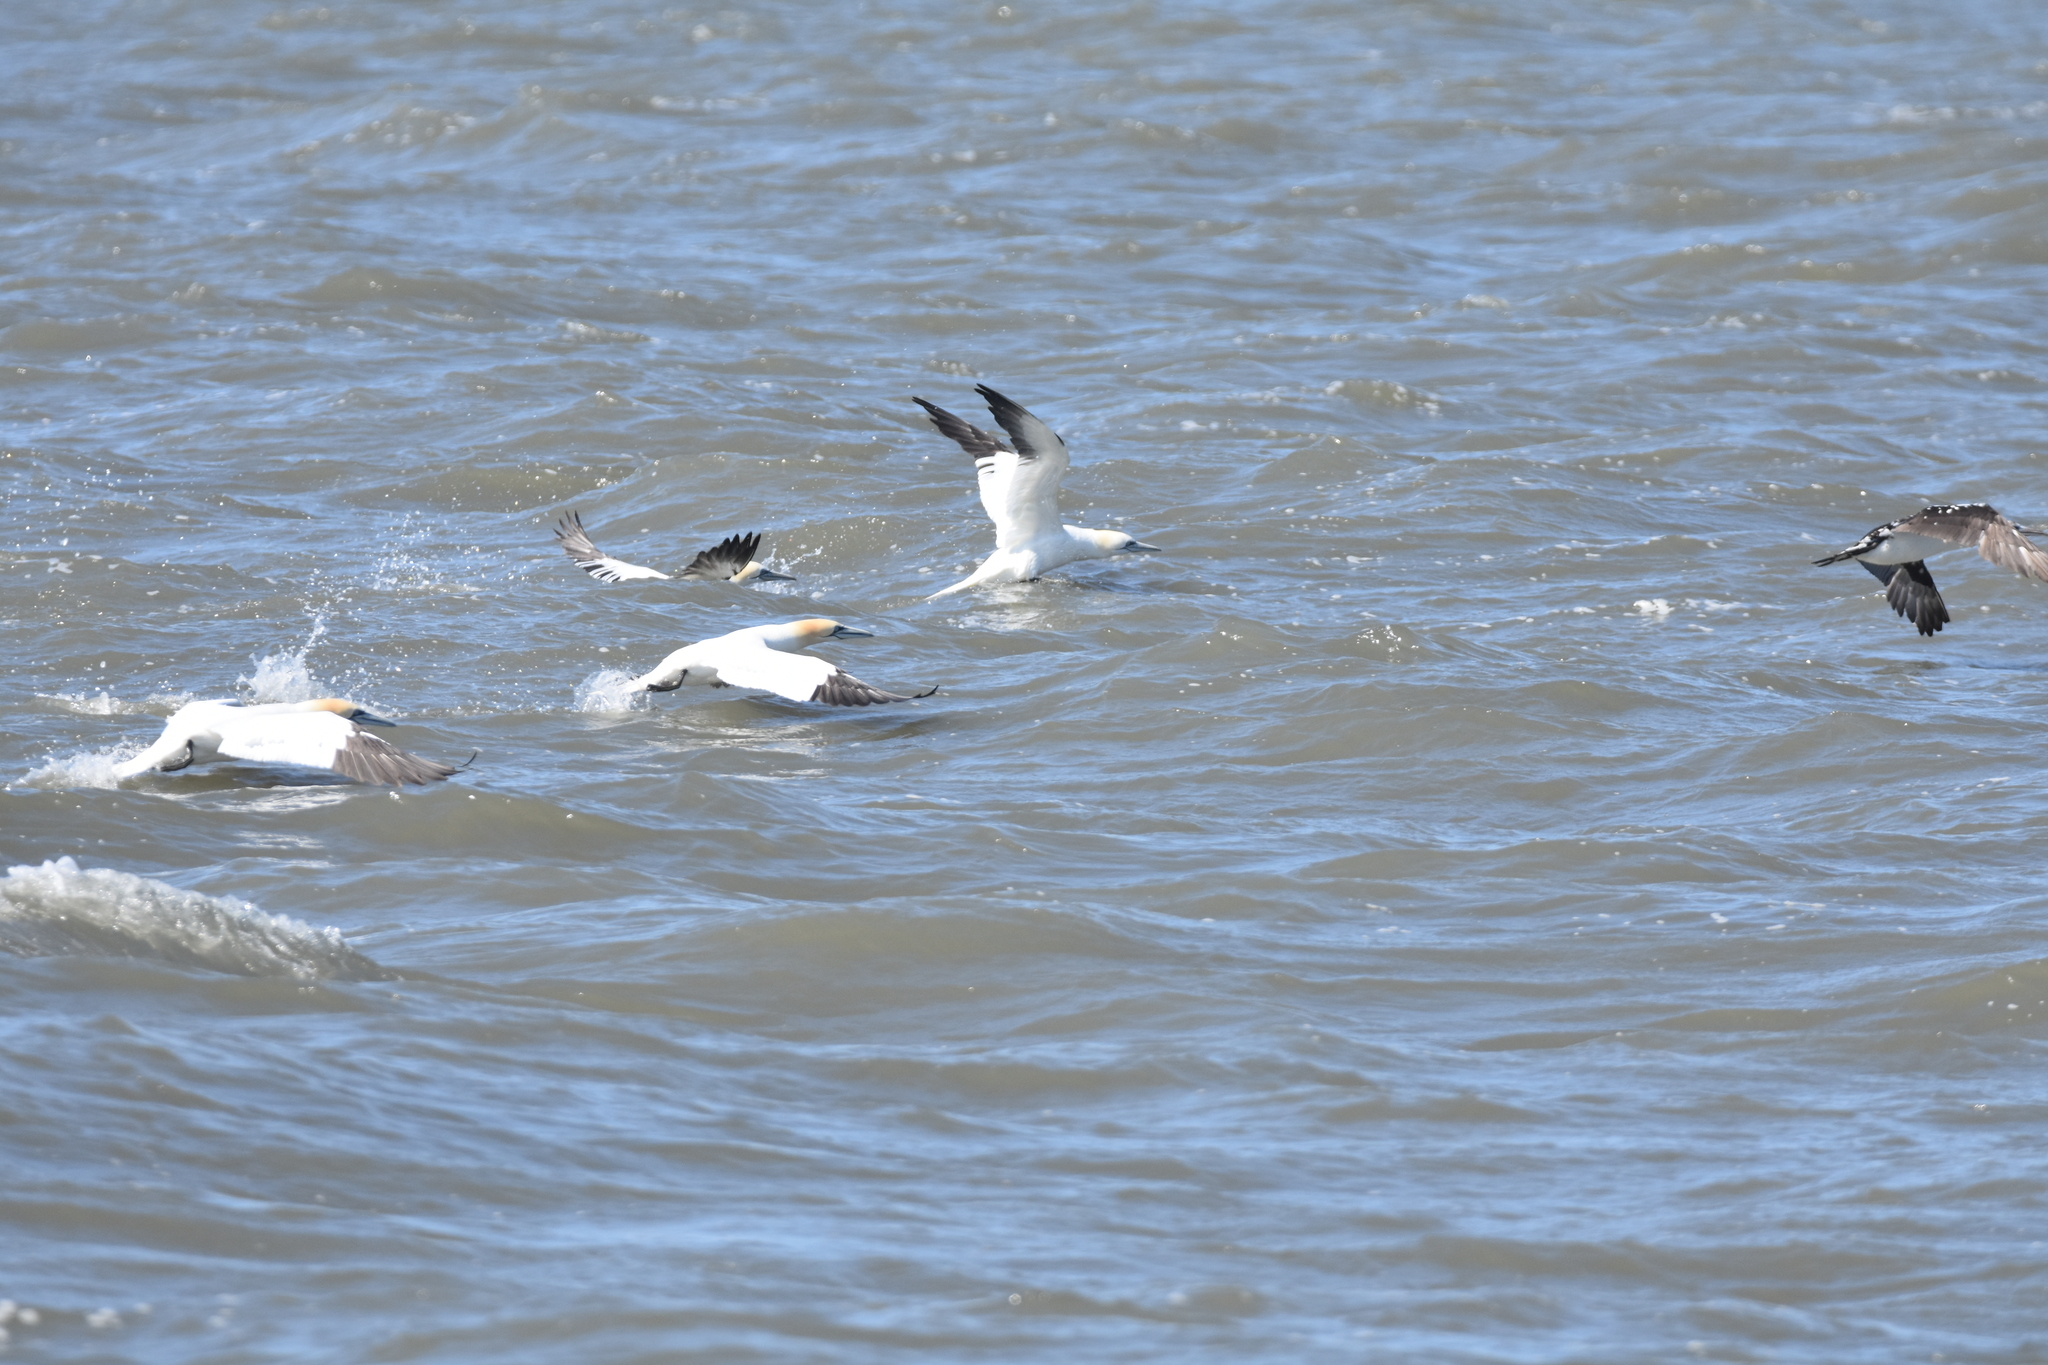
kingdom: Animalia
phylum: Chordata
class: Aves
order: Suliformes
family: Sulidae
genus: Morus
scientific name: Morus bassanus
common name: Northern gannet
